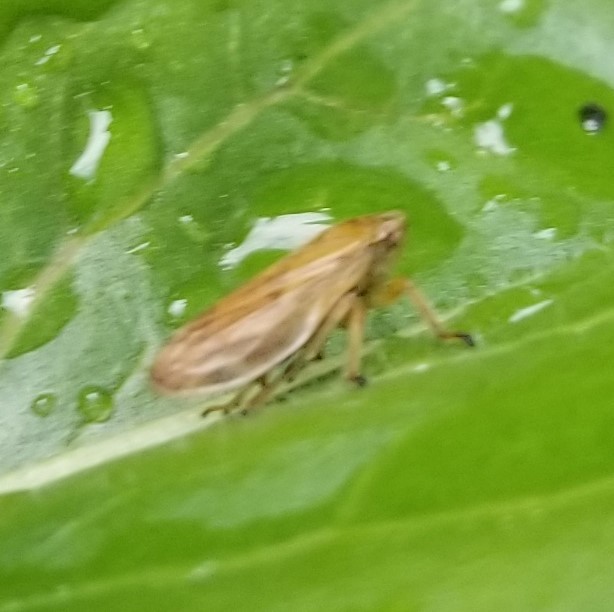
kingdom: Animalia
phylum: Arthropoda
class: Insecta
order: Hemiptera
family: Aphrophoridae
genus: Philaenus
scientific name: Philaenus spumarius
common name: Meadow spittlebug
